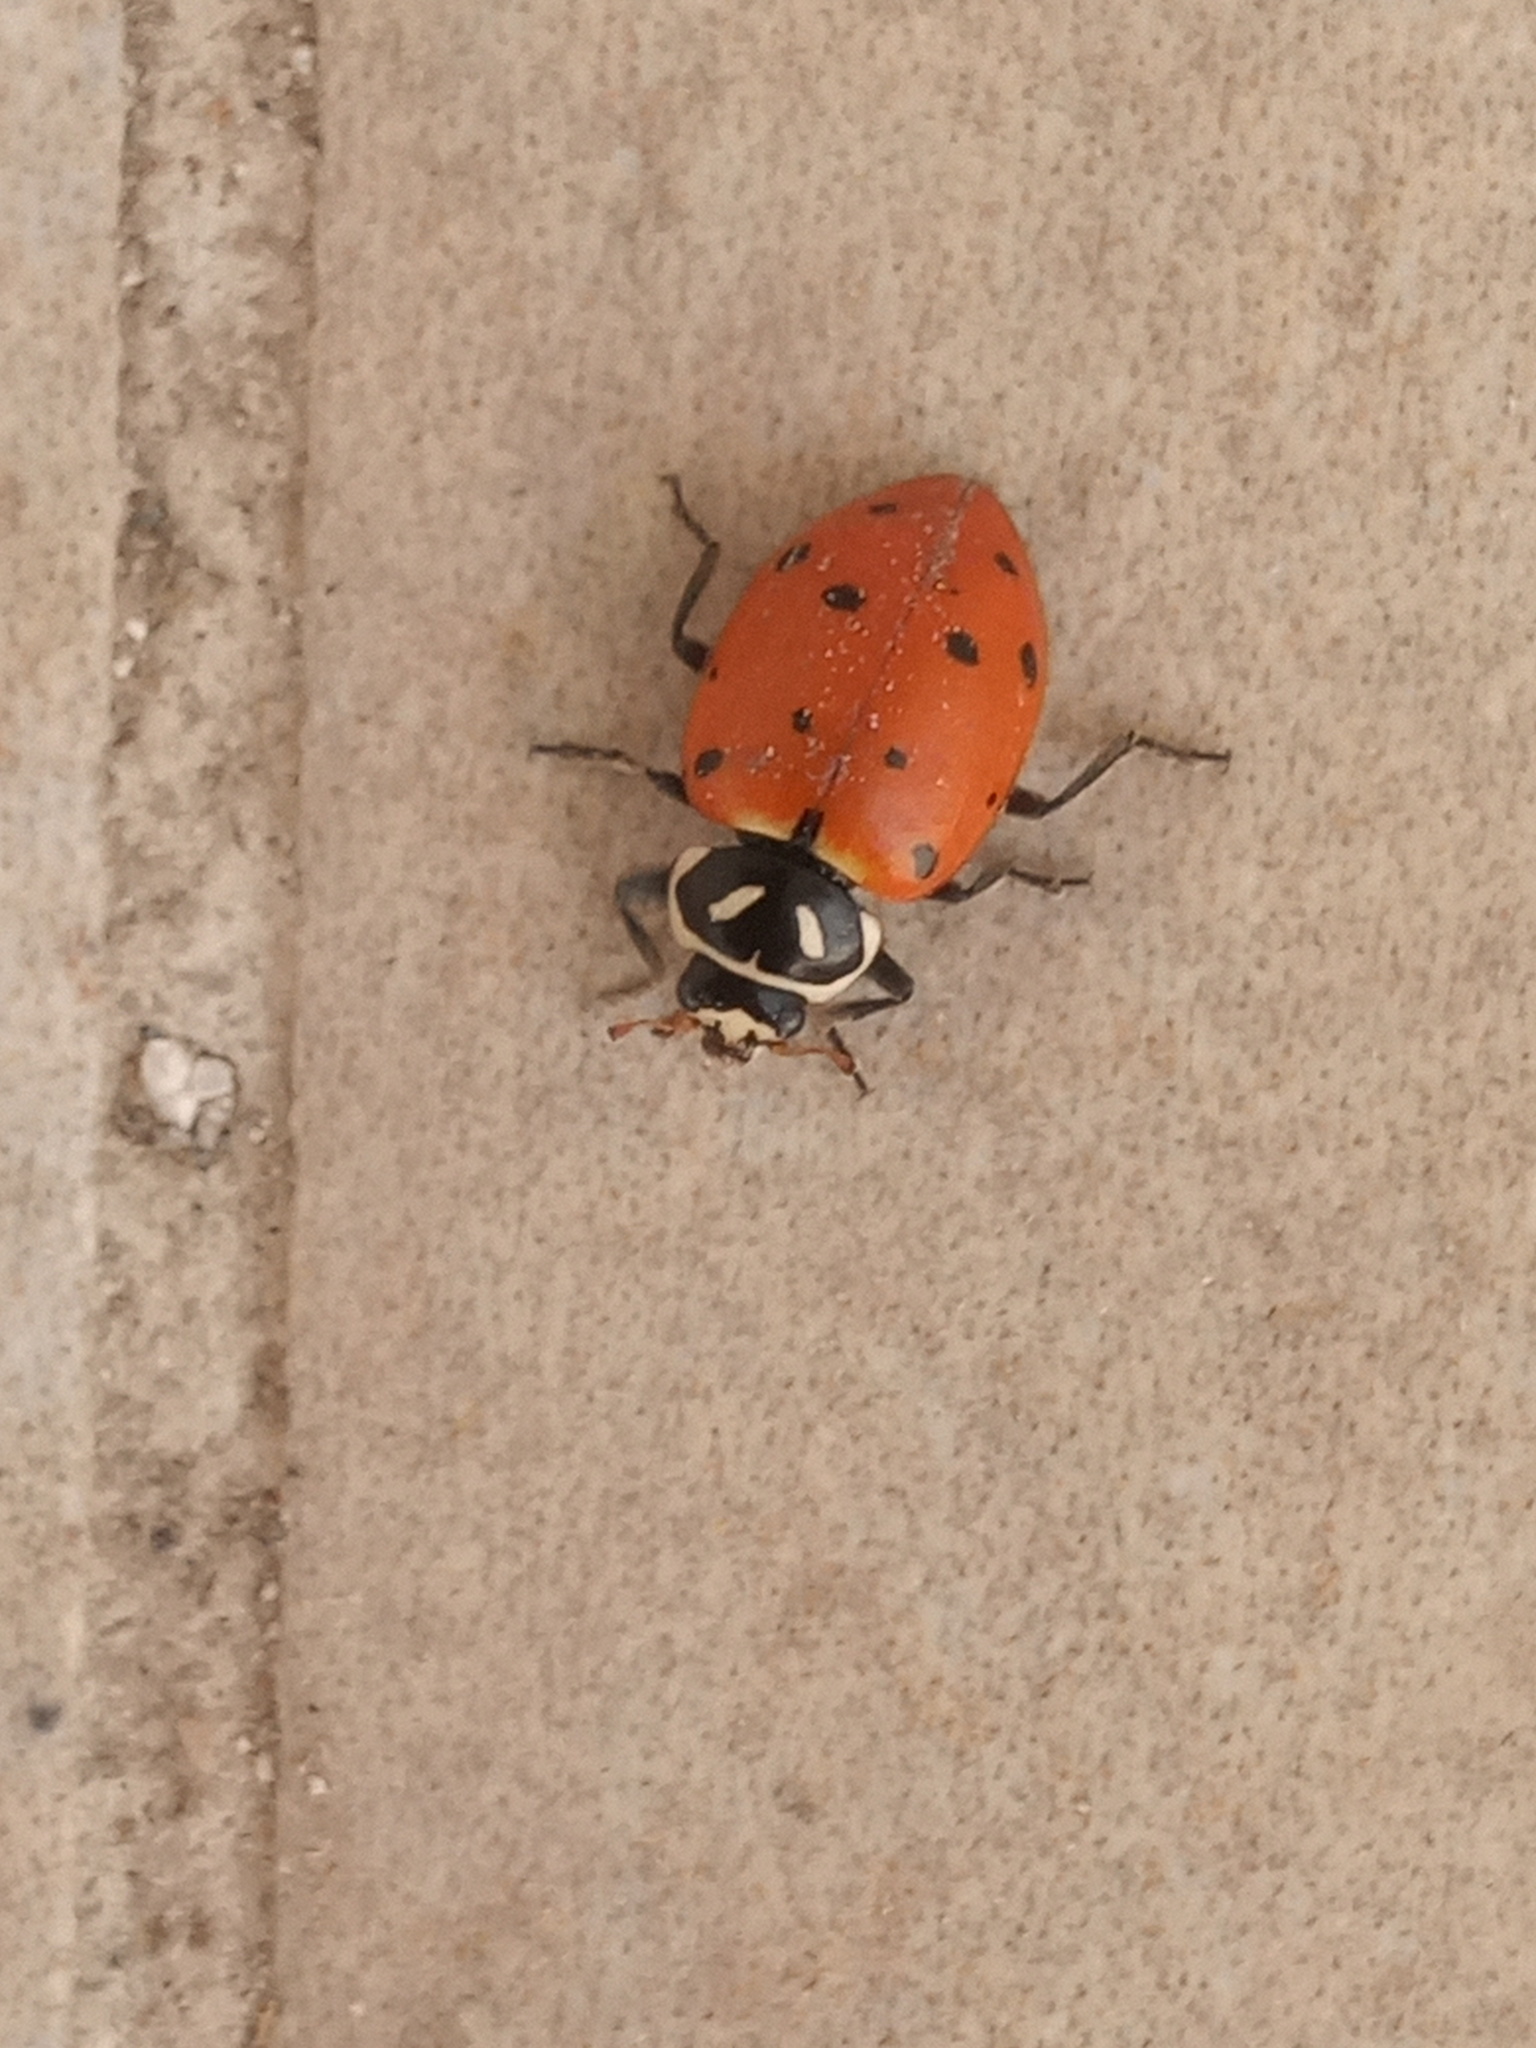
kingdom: Animalia
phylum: Arthropoda
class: Insecta
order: Coleoptera
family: Coccinellidae
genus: Hippodamia
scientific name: Hippodamia convergens
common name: Convergent lady beetle
